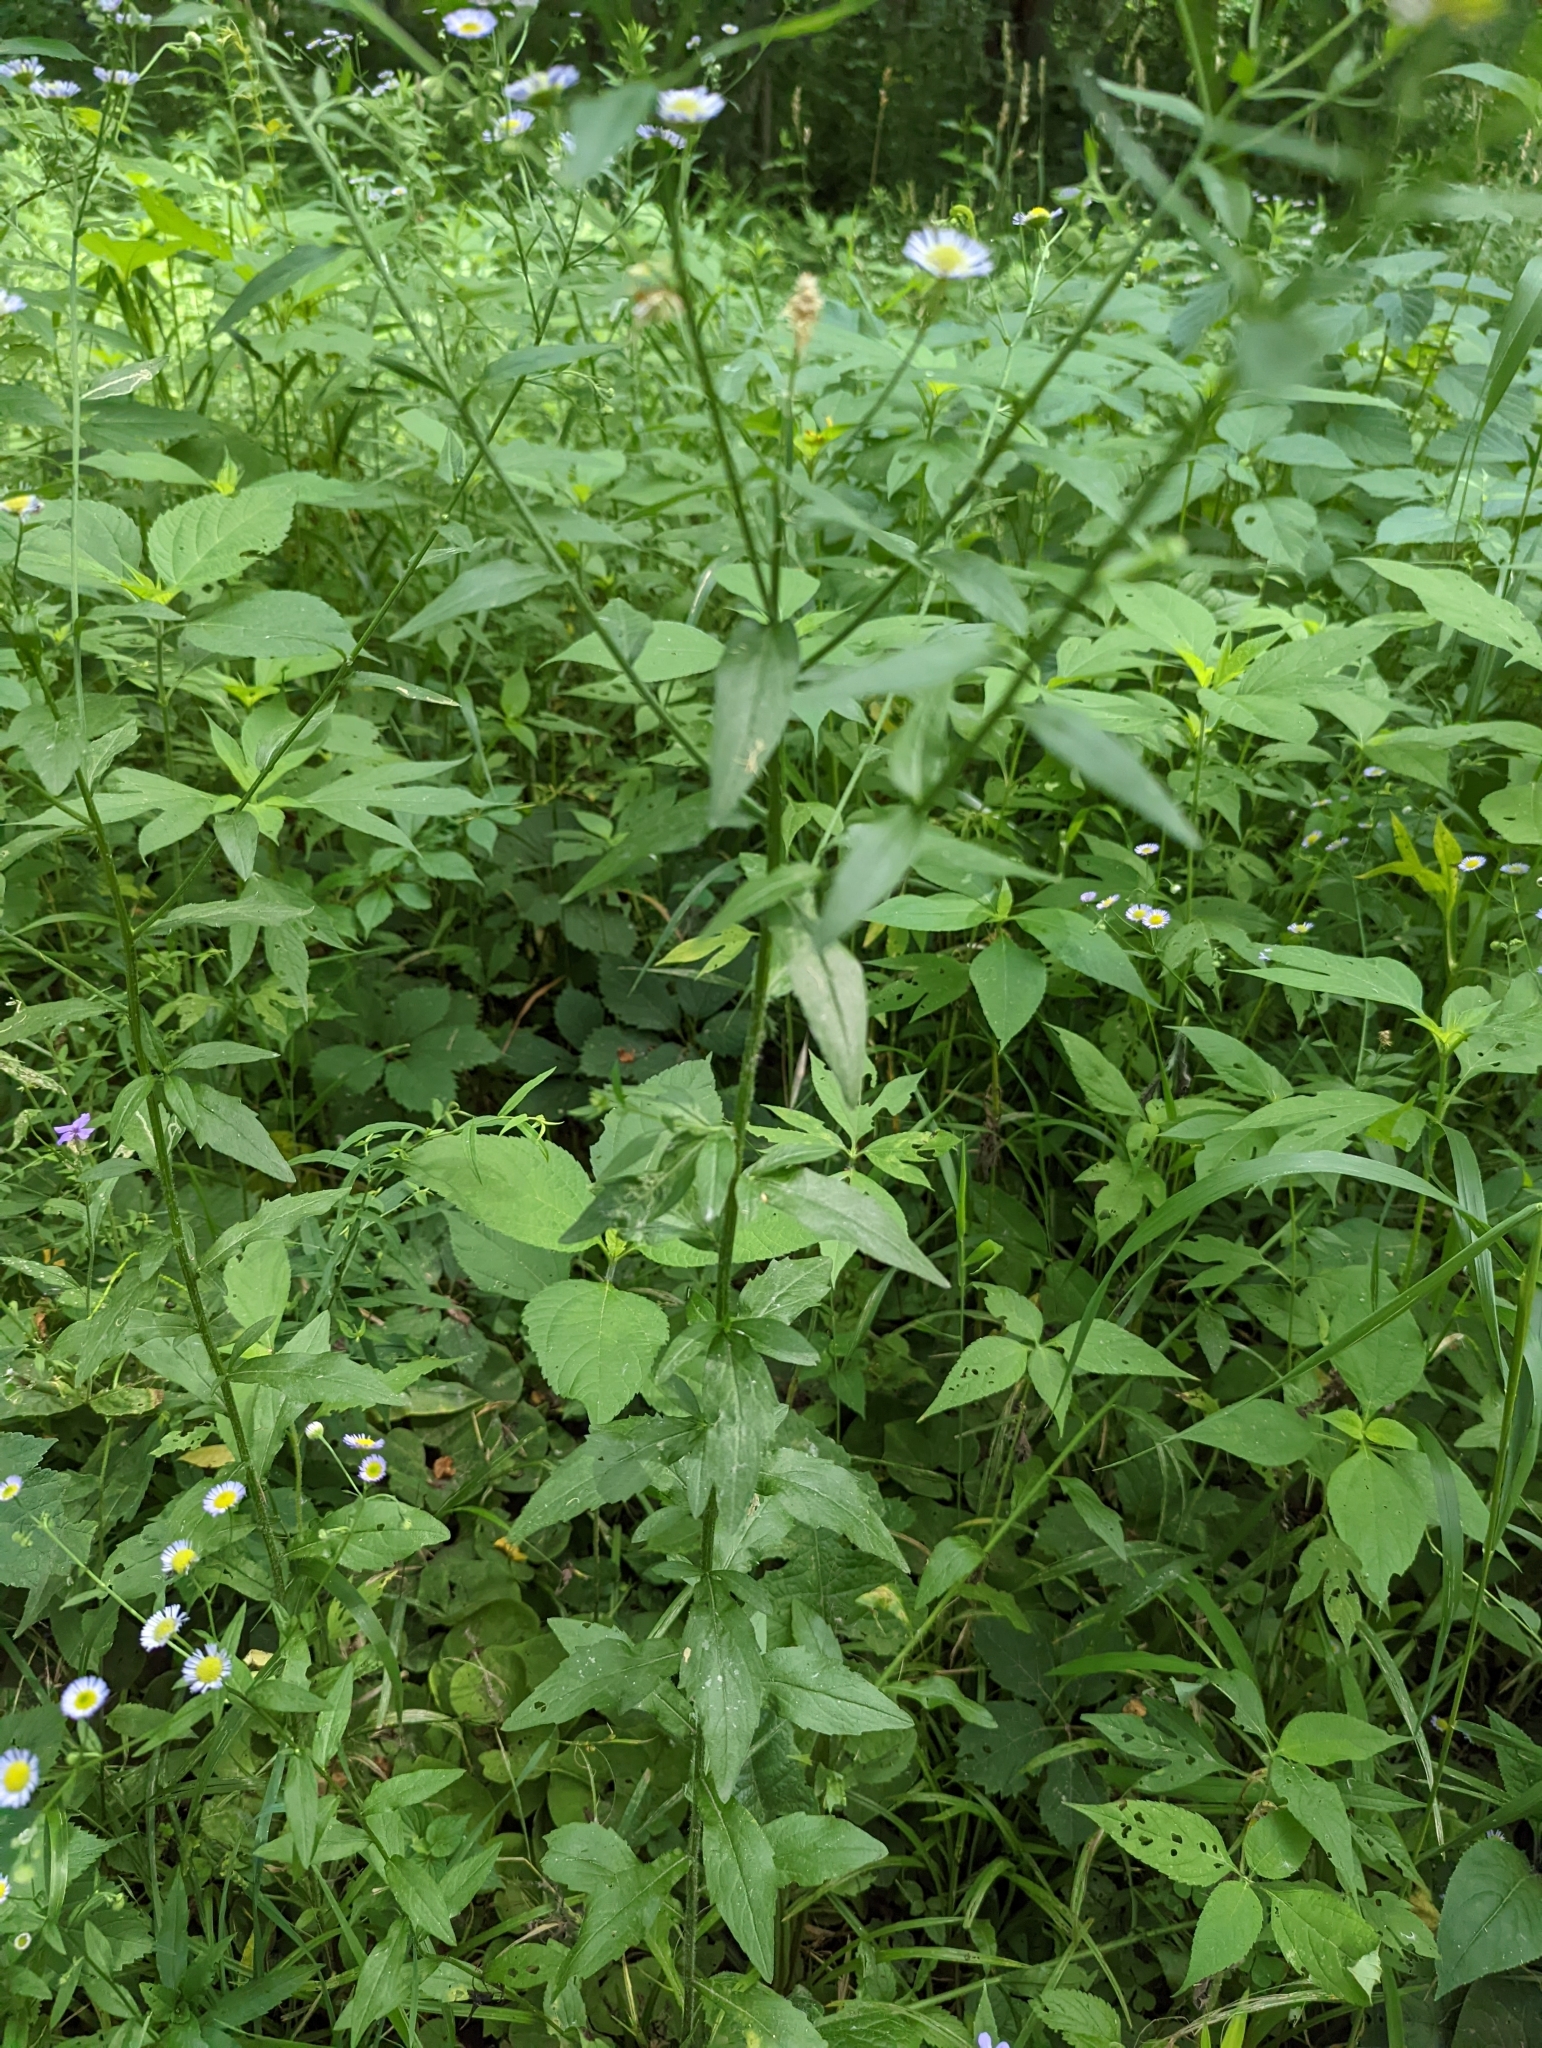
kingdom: Plantae
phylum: Tracheophyta
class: Magnoliopsida
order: Asterales
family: Asteraceae
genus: Erigeron
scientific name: Erigeron annuus
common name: Tall fleabane
